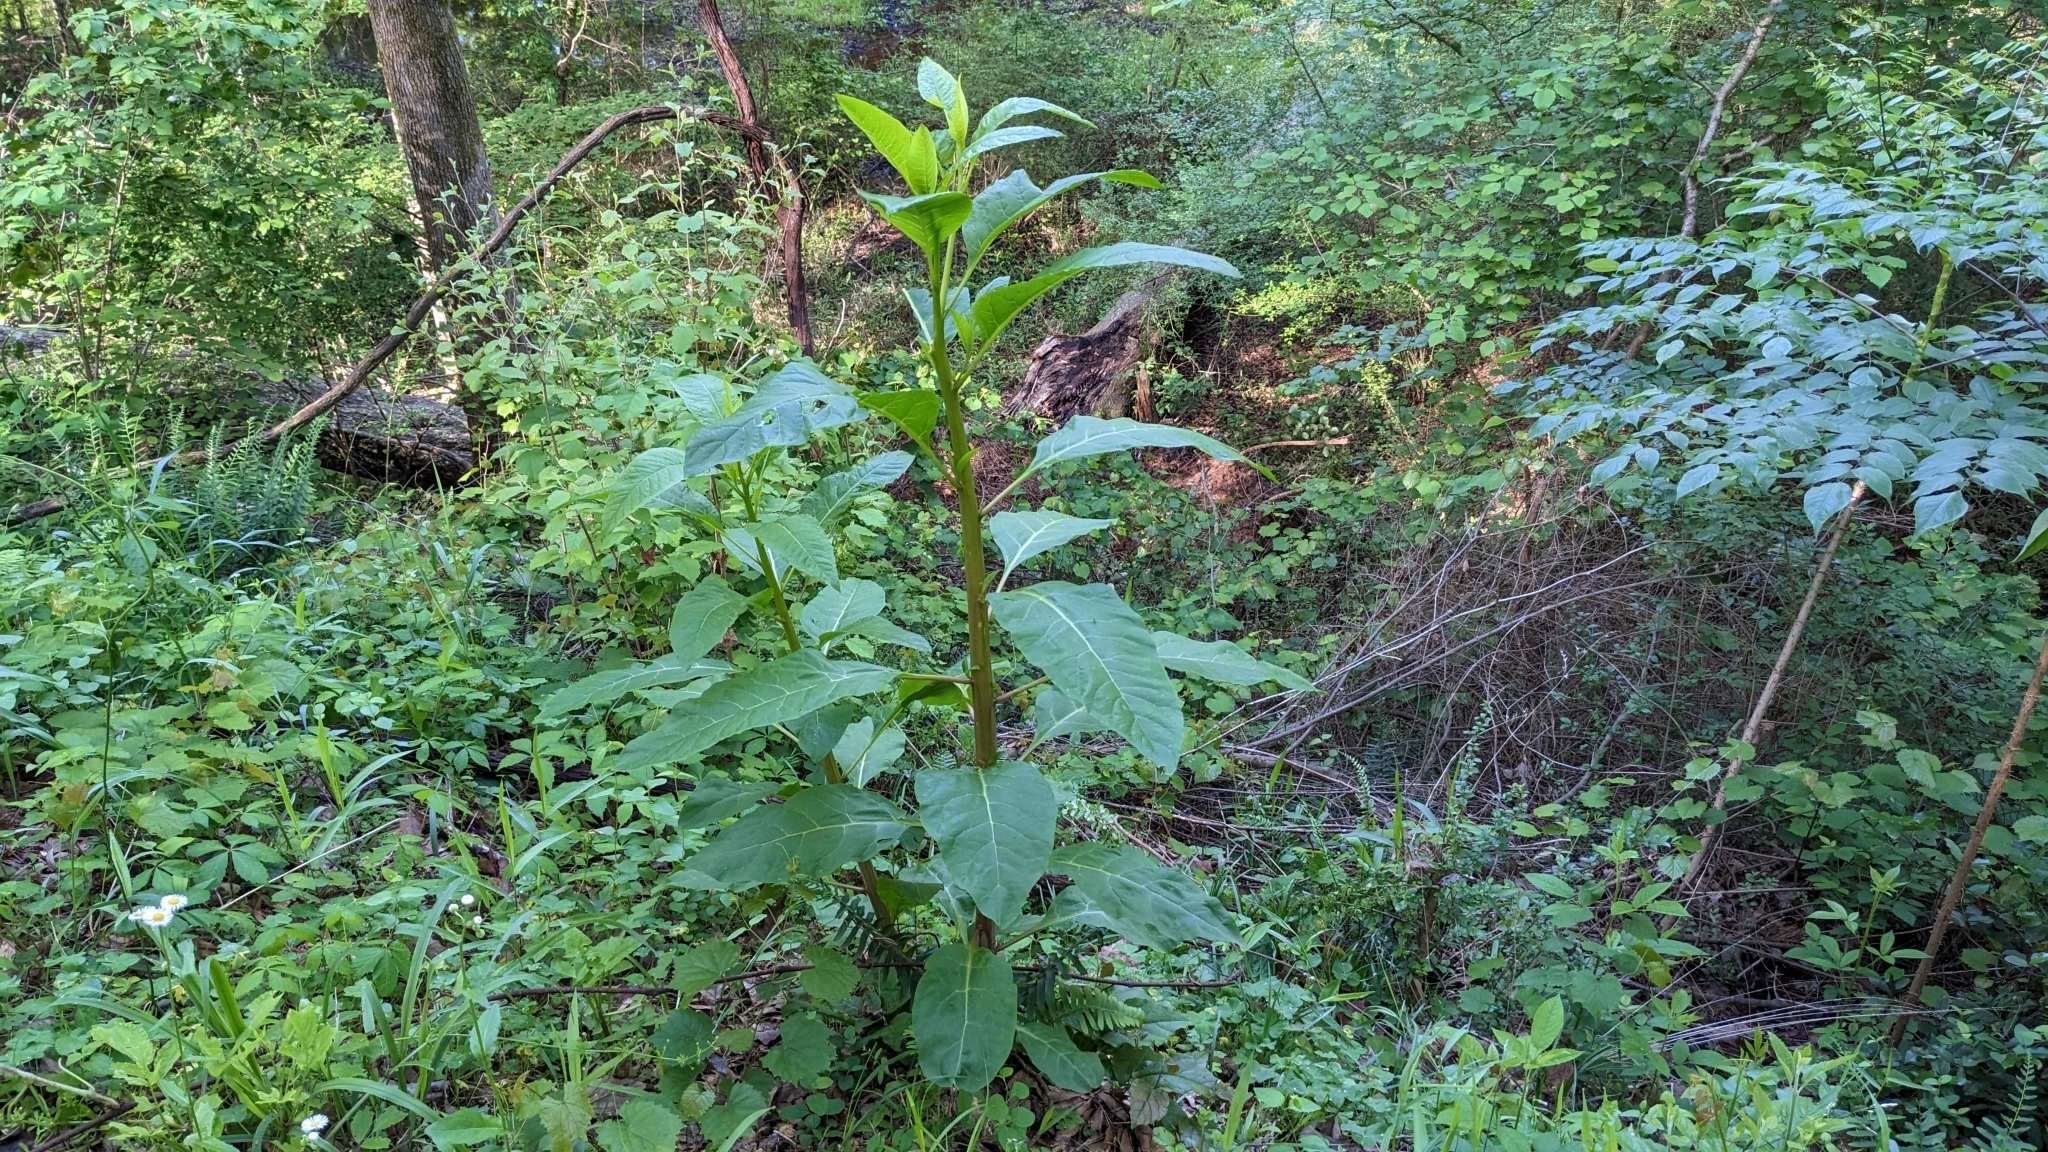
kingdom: Plantae
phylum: Tracheophyta
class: Magnoliopsida
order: Caryophyllales
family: Phytolaccaceae
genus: Phytolacca
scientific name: Phytolacca americana
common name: American pokeweed
